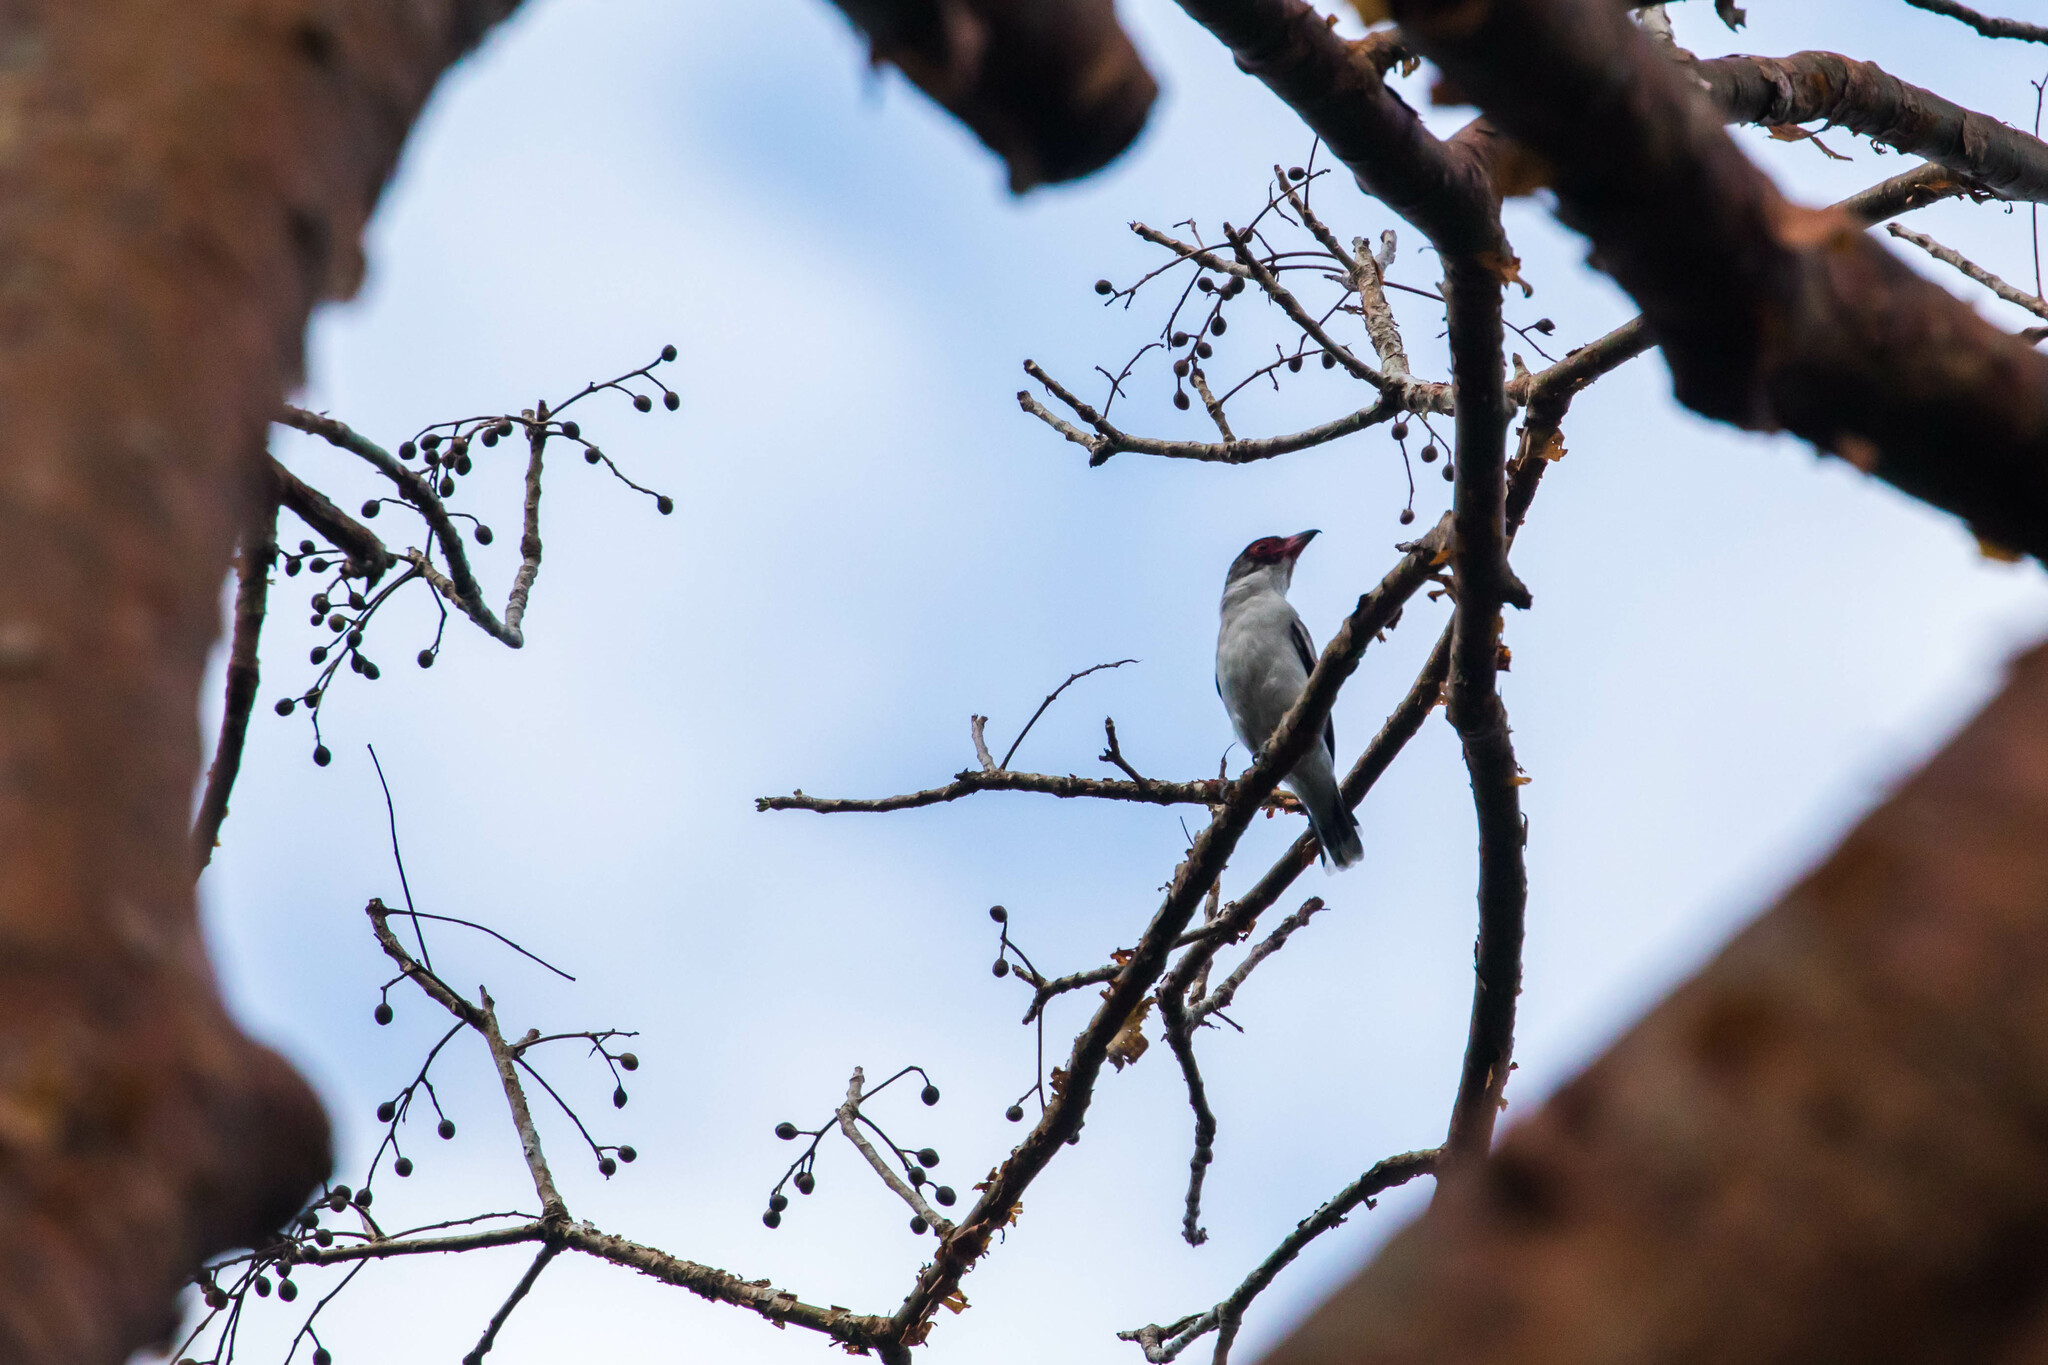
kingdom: Animalia
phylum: Chordata
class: Aves
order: Passeriformes
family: Cotingidae
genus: Tityra
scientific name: Tityra semifasciata
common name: Masked tityra
